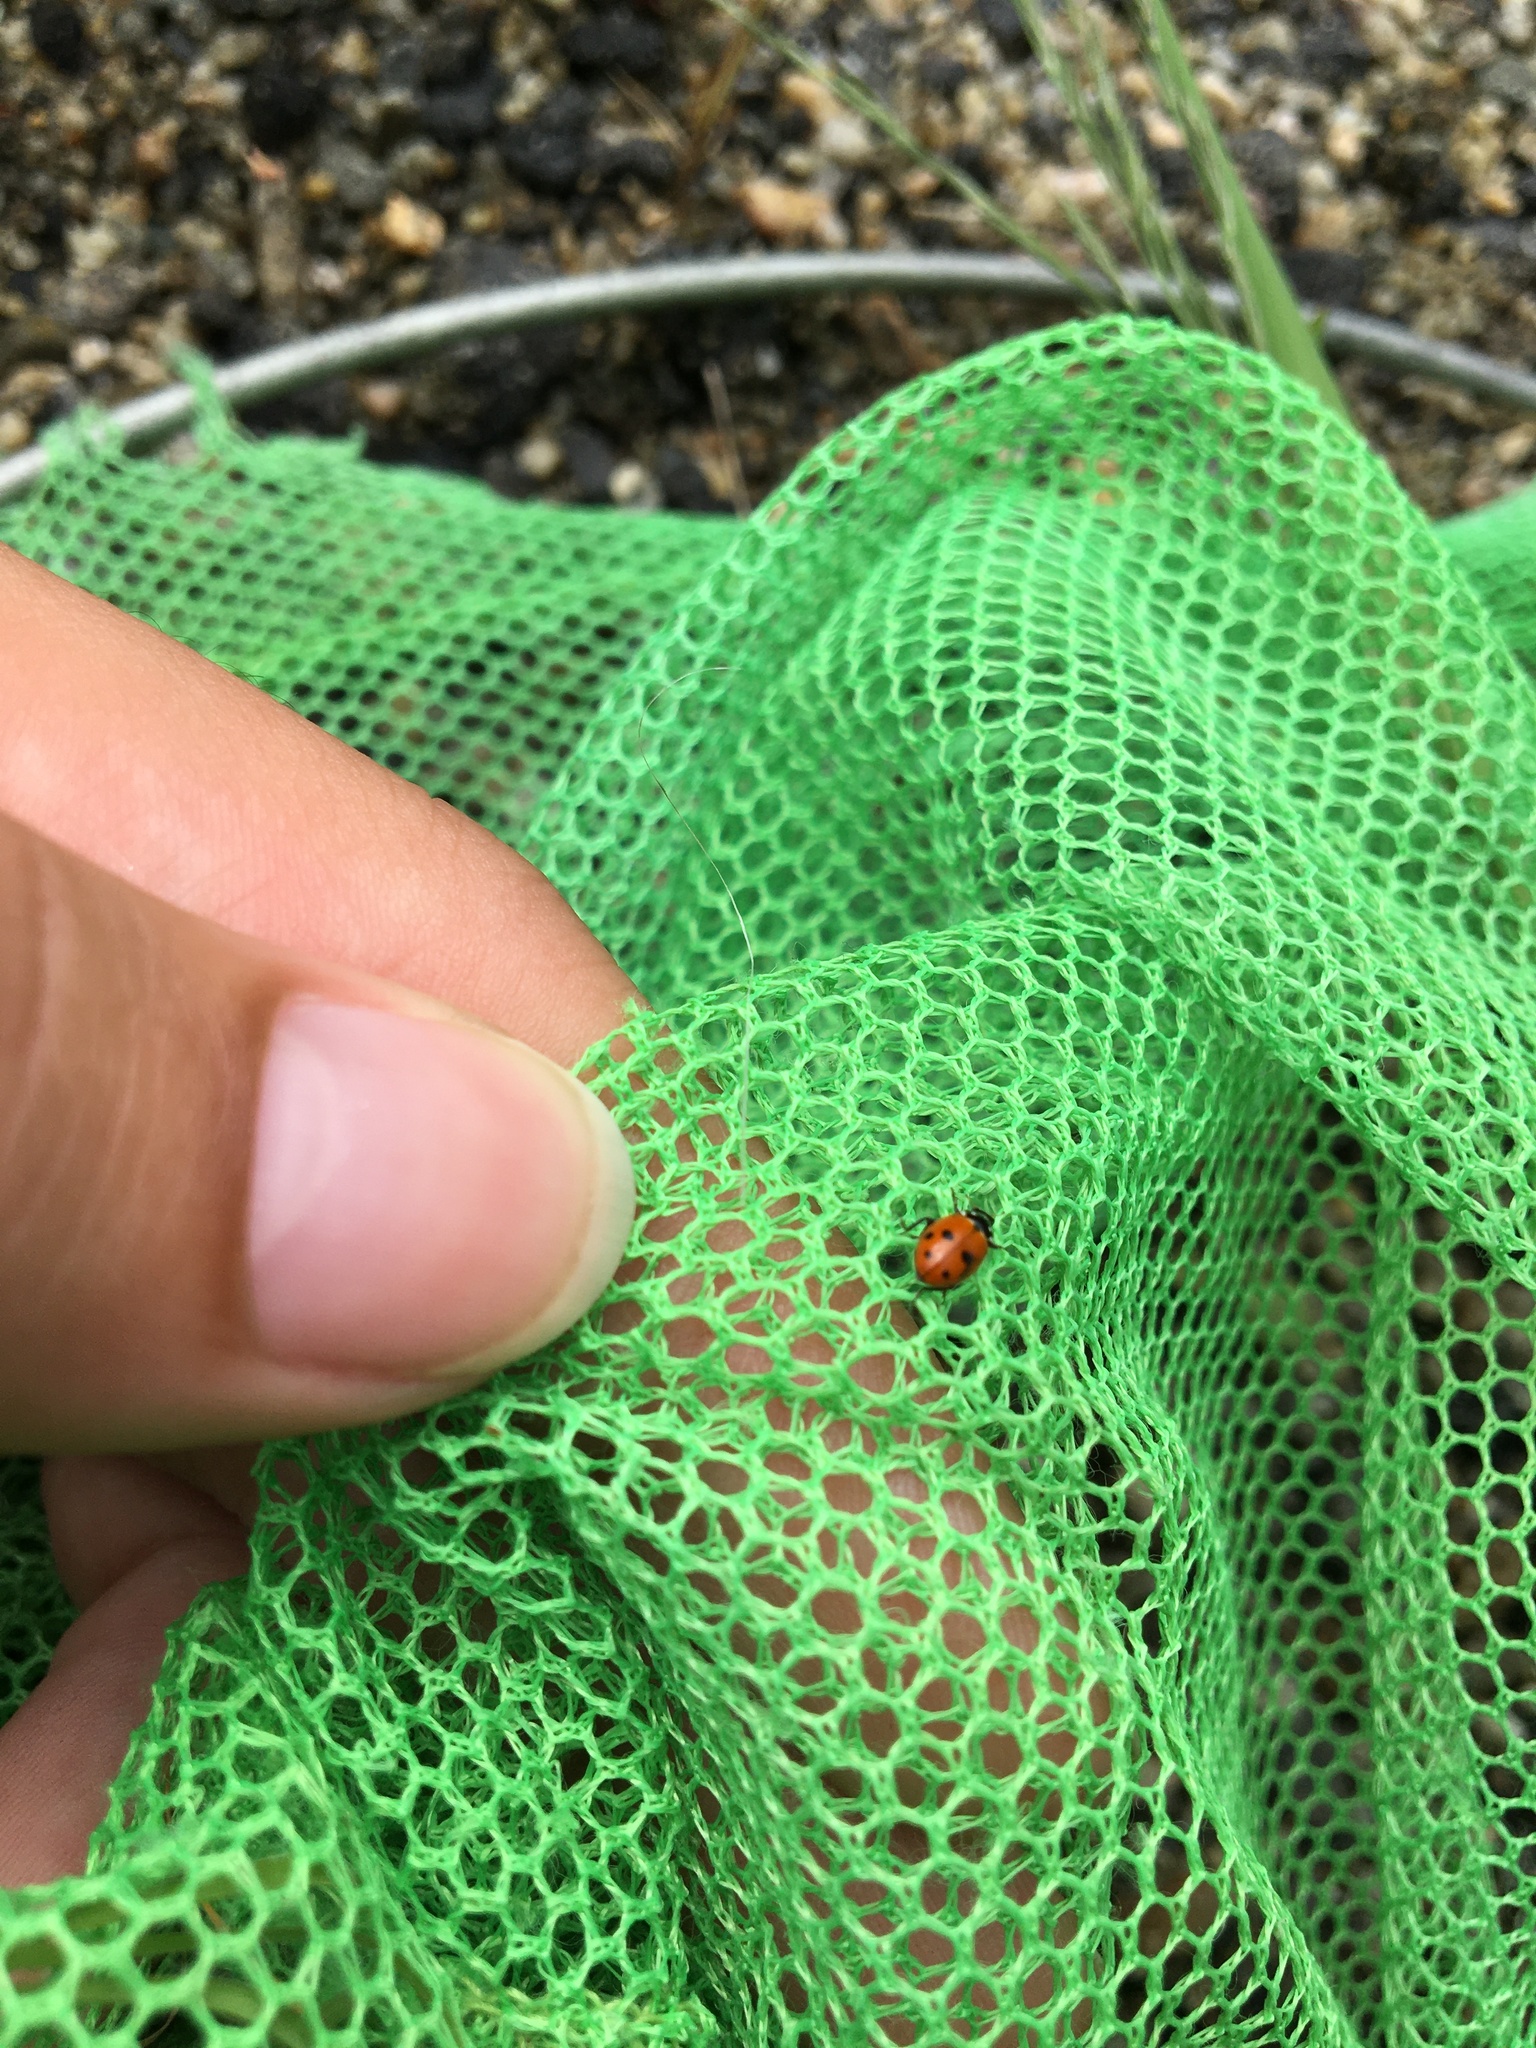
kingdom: Animalia
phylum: Arthropoda
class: Insecta
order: Coleoptera
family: Coccinellidae
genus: Hippodamia
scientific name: Hippodamia variegata
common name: Ladybird beetle
